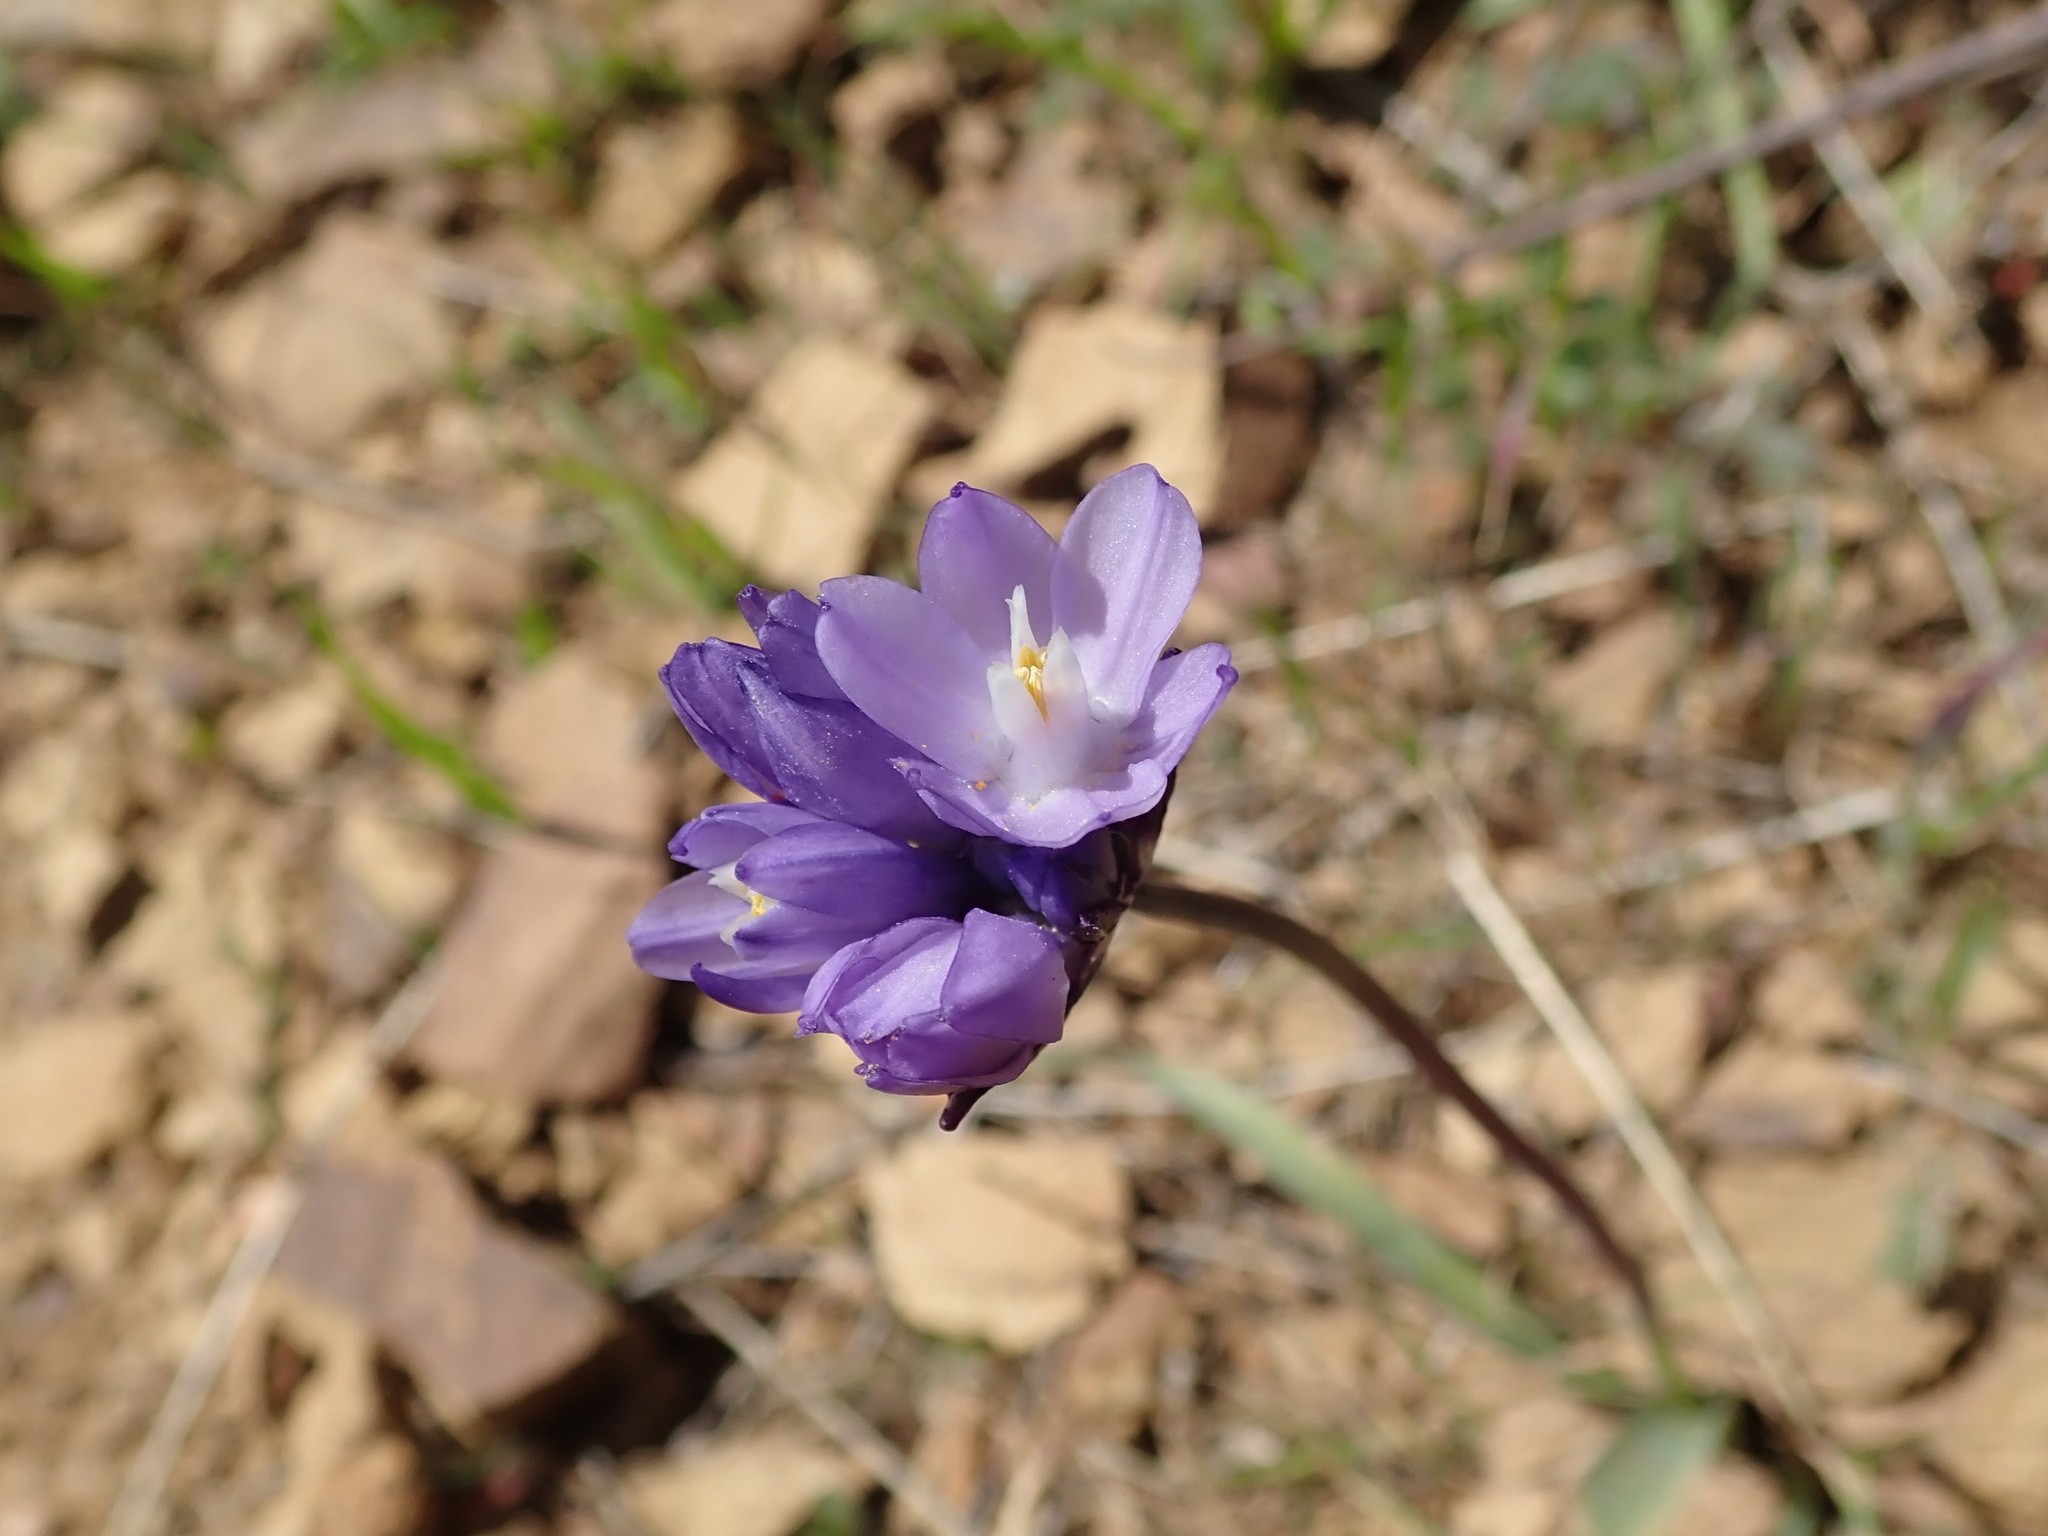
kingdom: Plantae
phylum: Tracheophyta
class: Liliopsida
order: Asparagales
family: Asparagaceae
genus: Dipterostemon
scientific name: Dipterostemon capitatus
